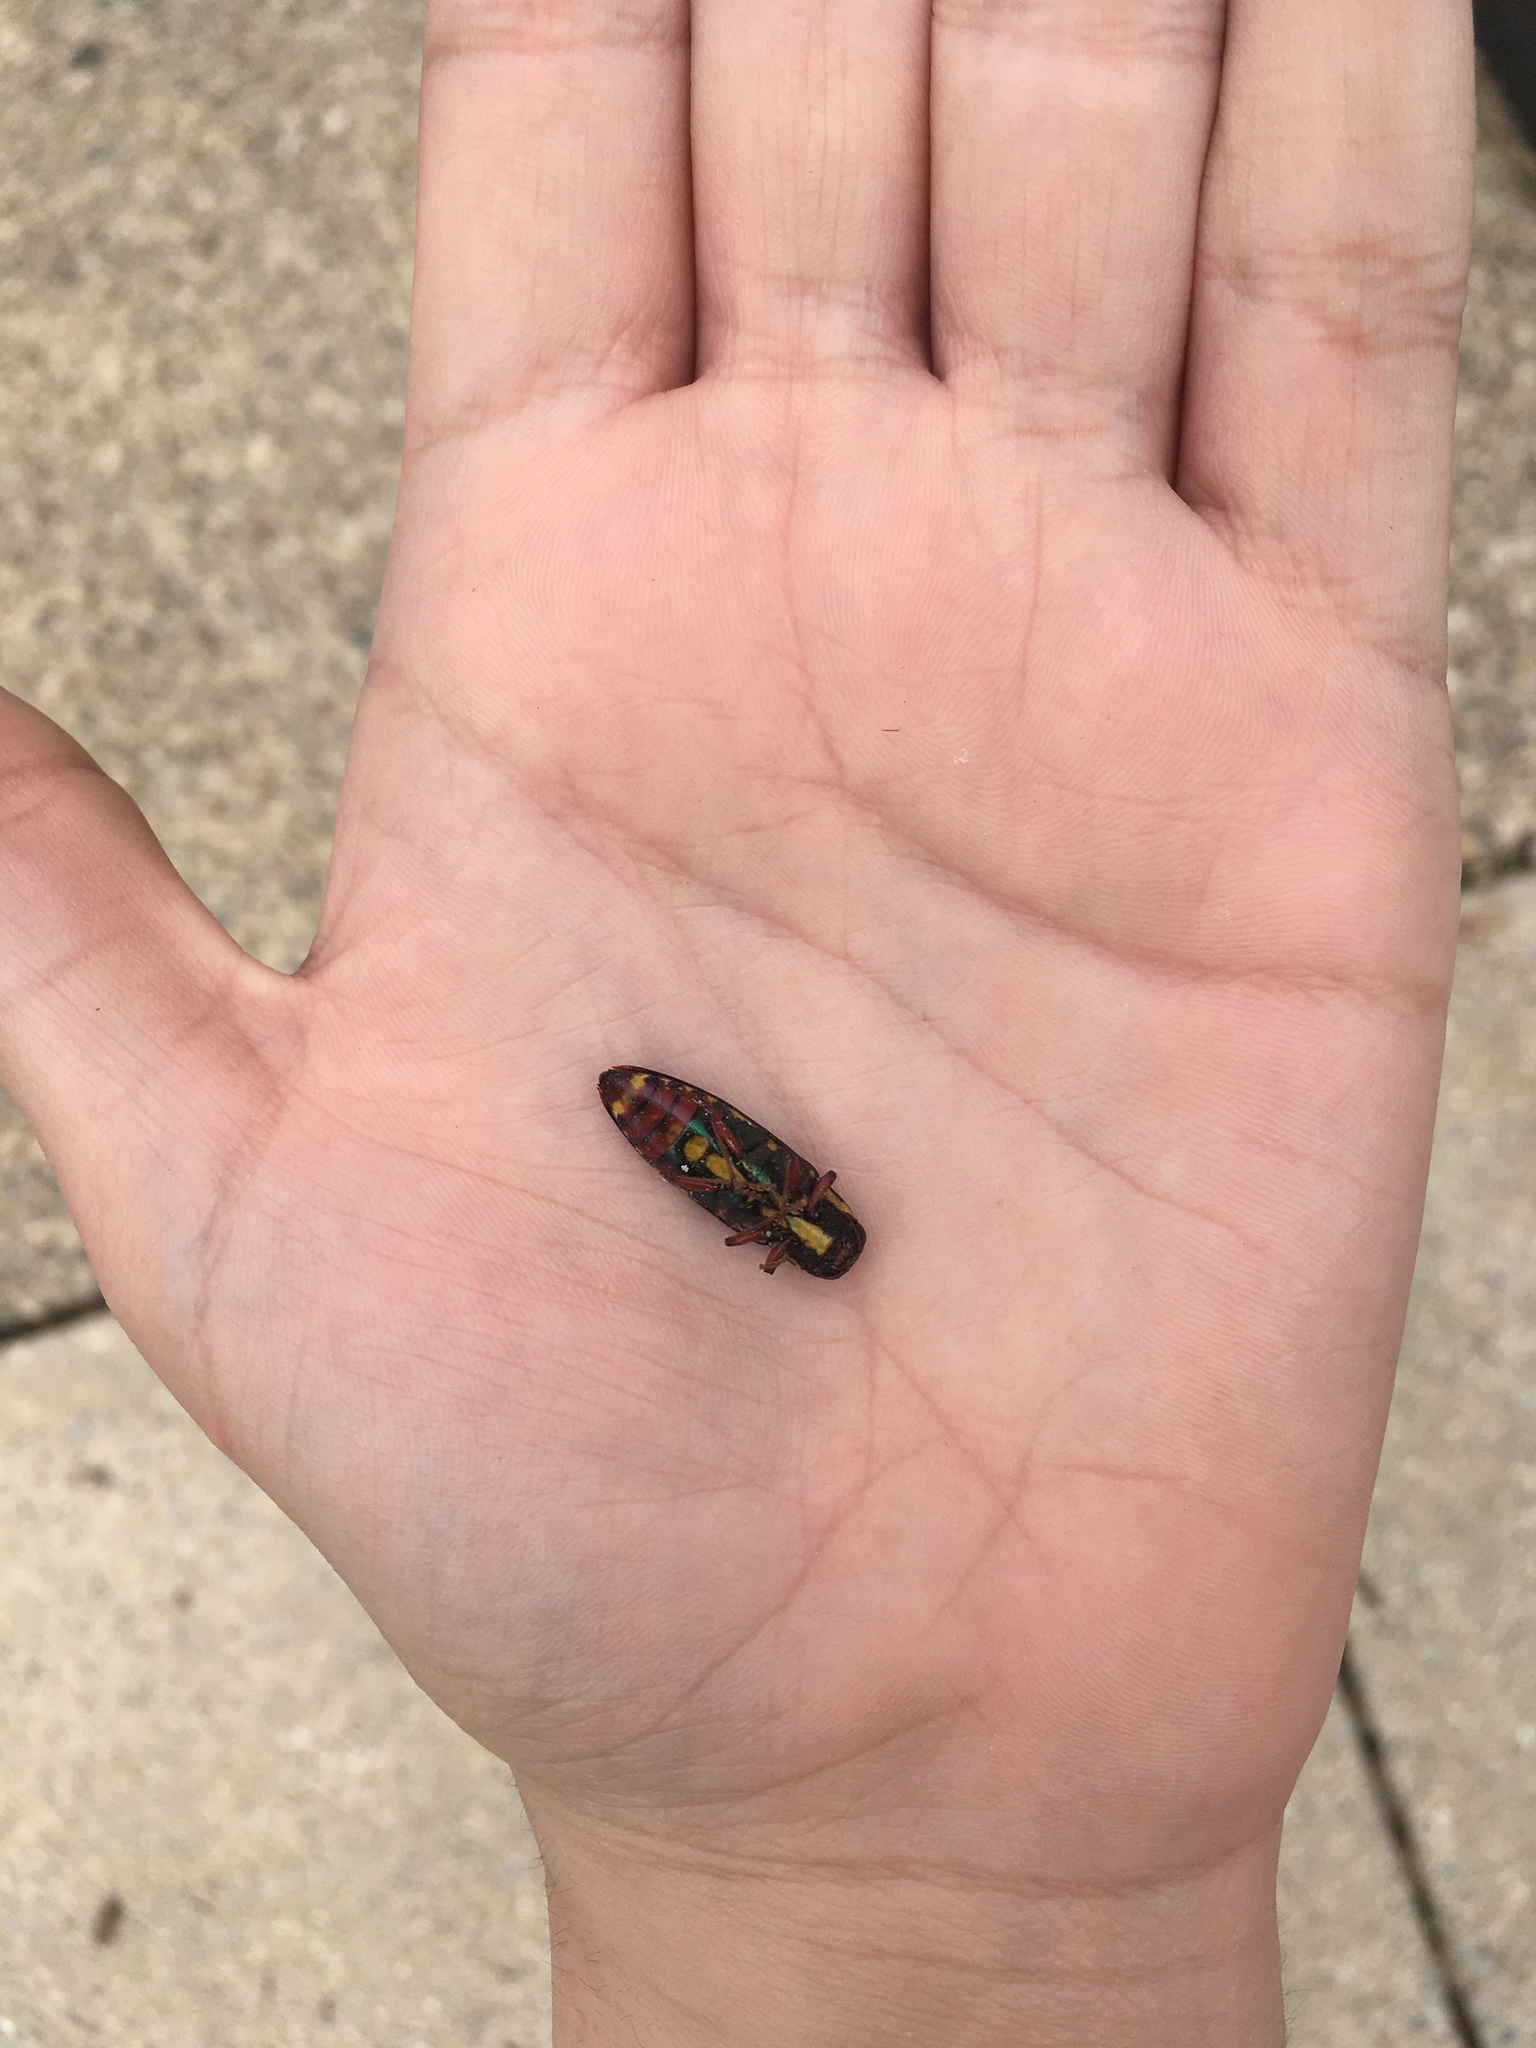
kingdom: Animalia
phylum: Arthropoda
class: Insecta
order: Coleoptera
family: Buprestidae
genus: Buprestis
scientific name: Buprestis rufipes
